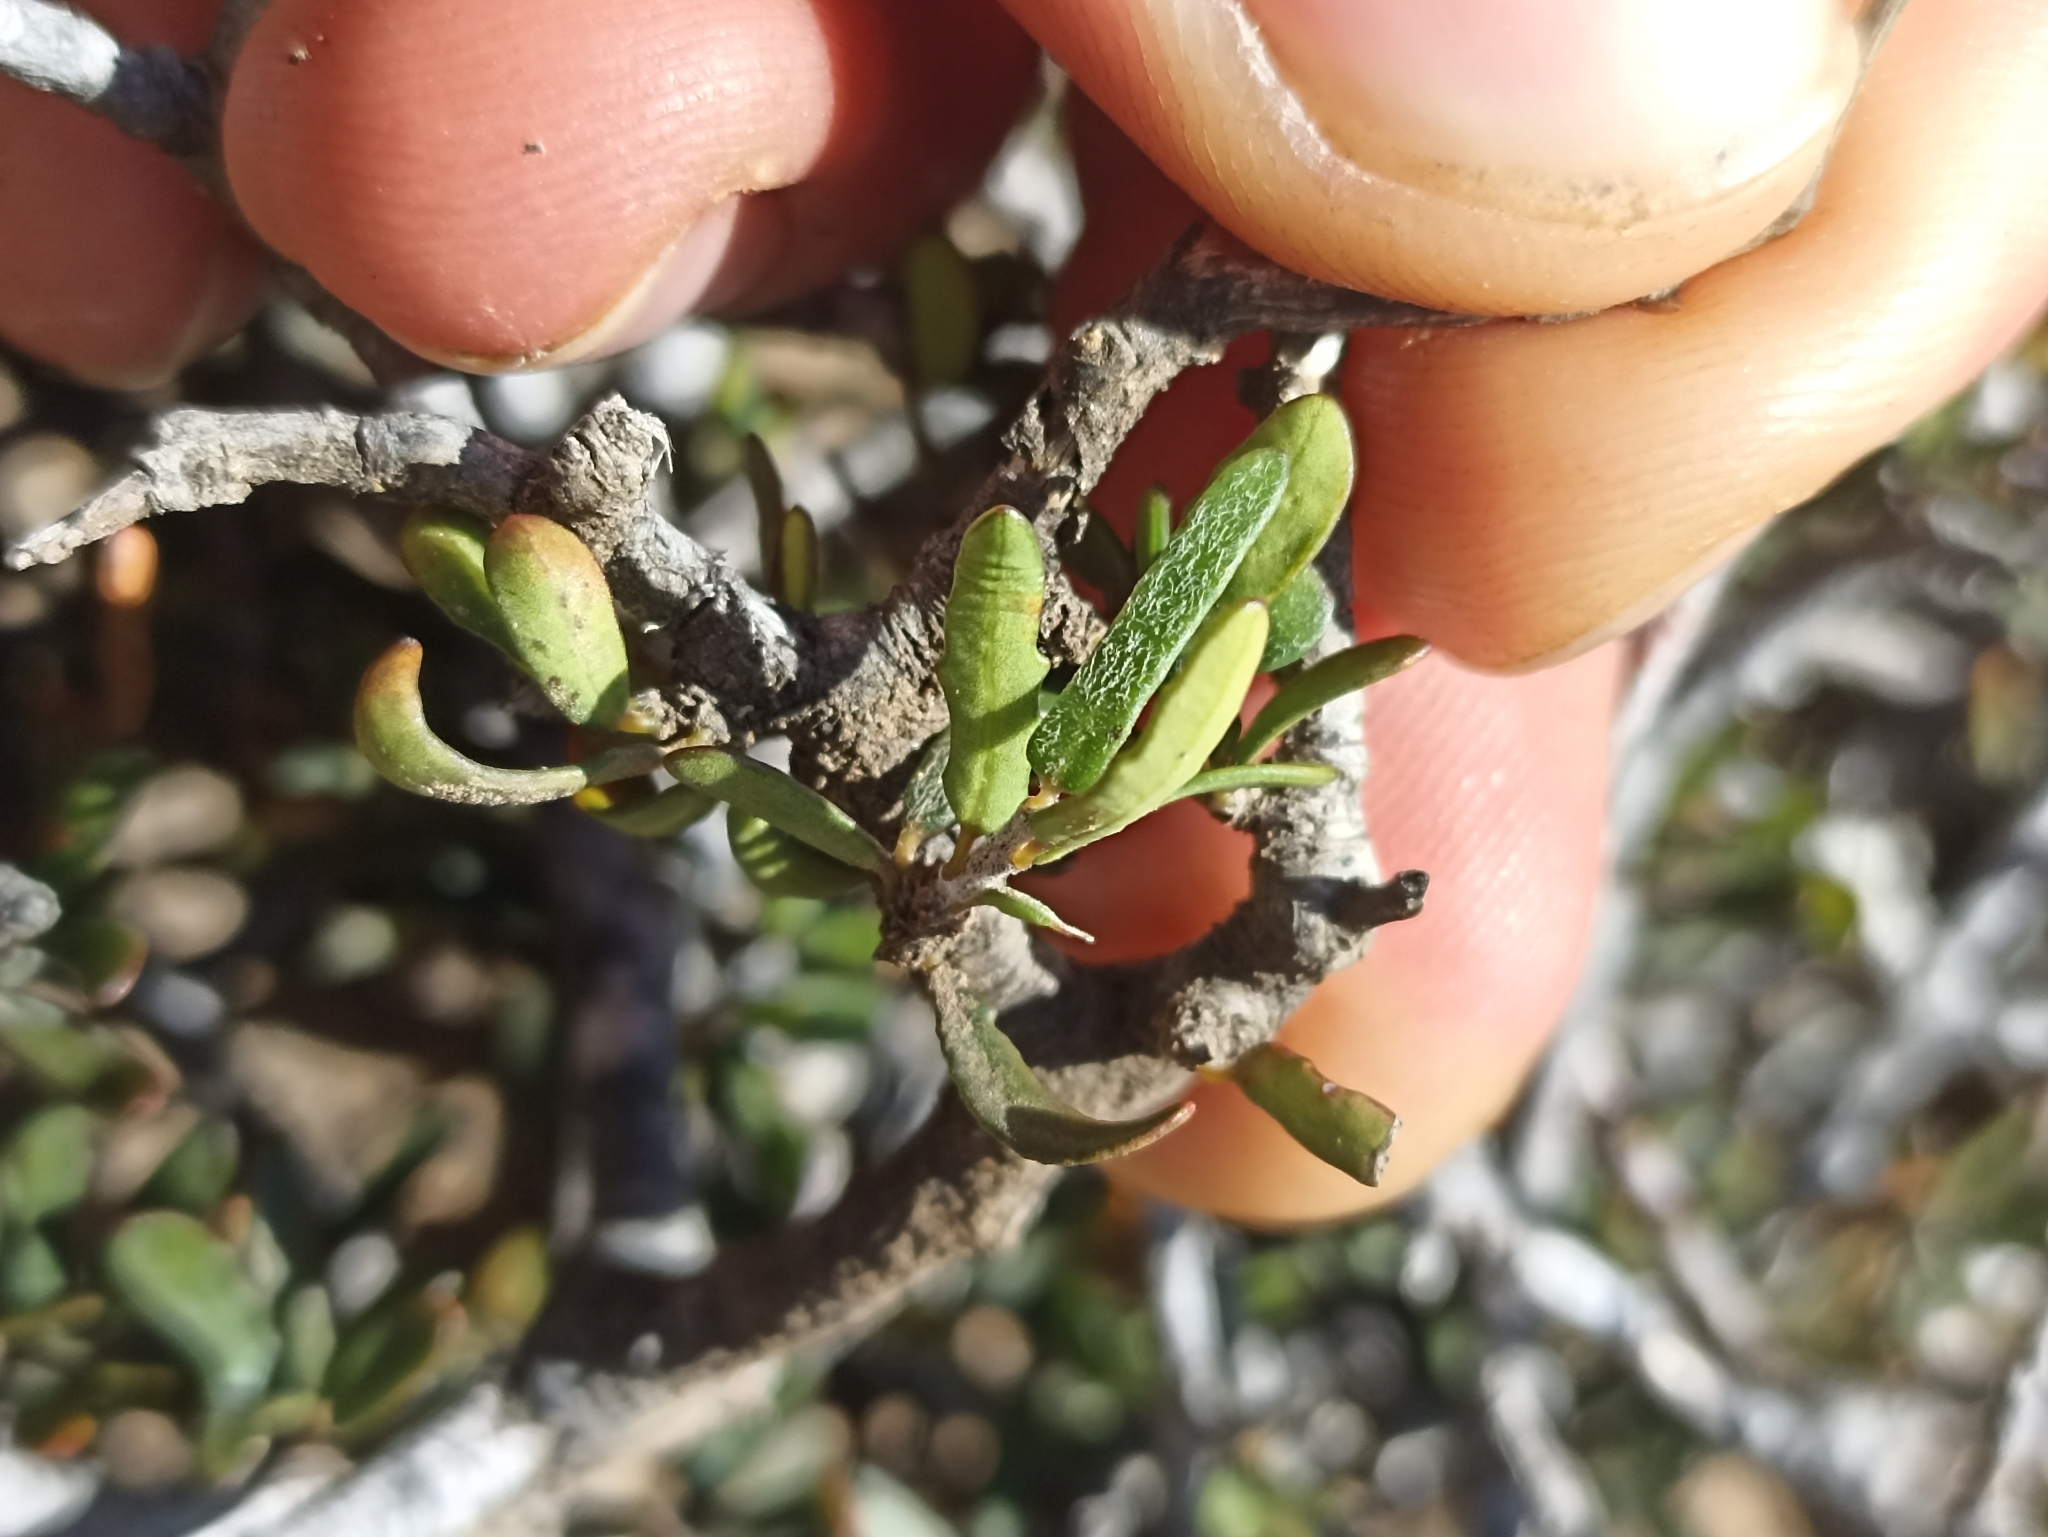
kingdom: Plantae
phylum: Tracheophyta
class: Magnoliopsida
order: Apiales
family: Pittosporaceae
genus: Pittosporum
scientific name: Pittosporum anomalum
